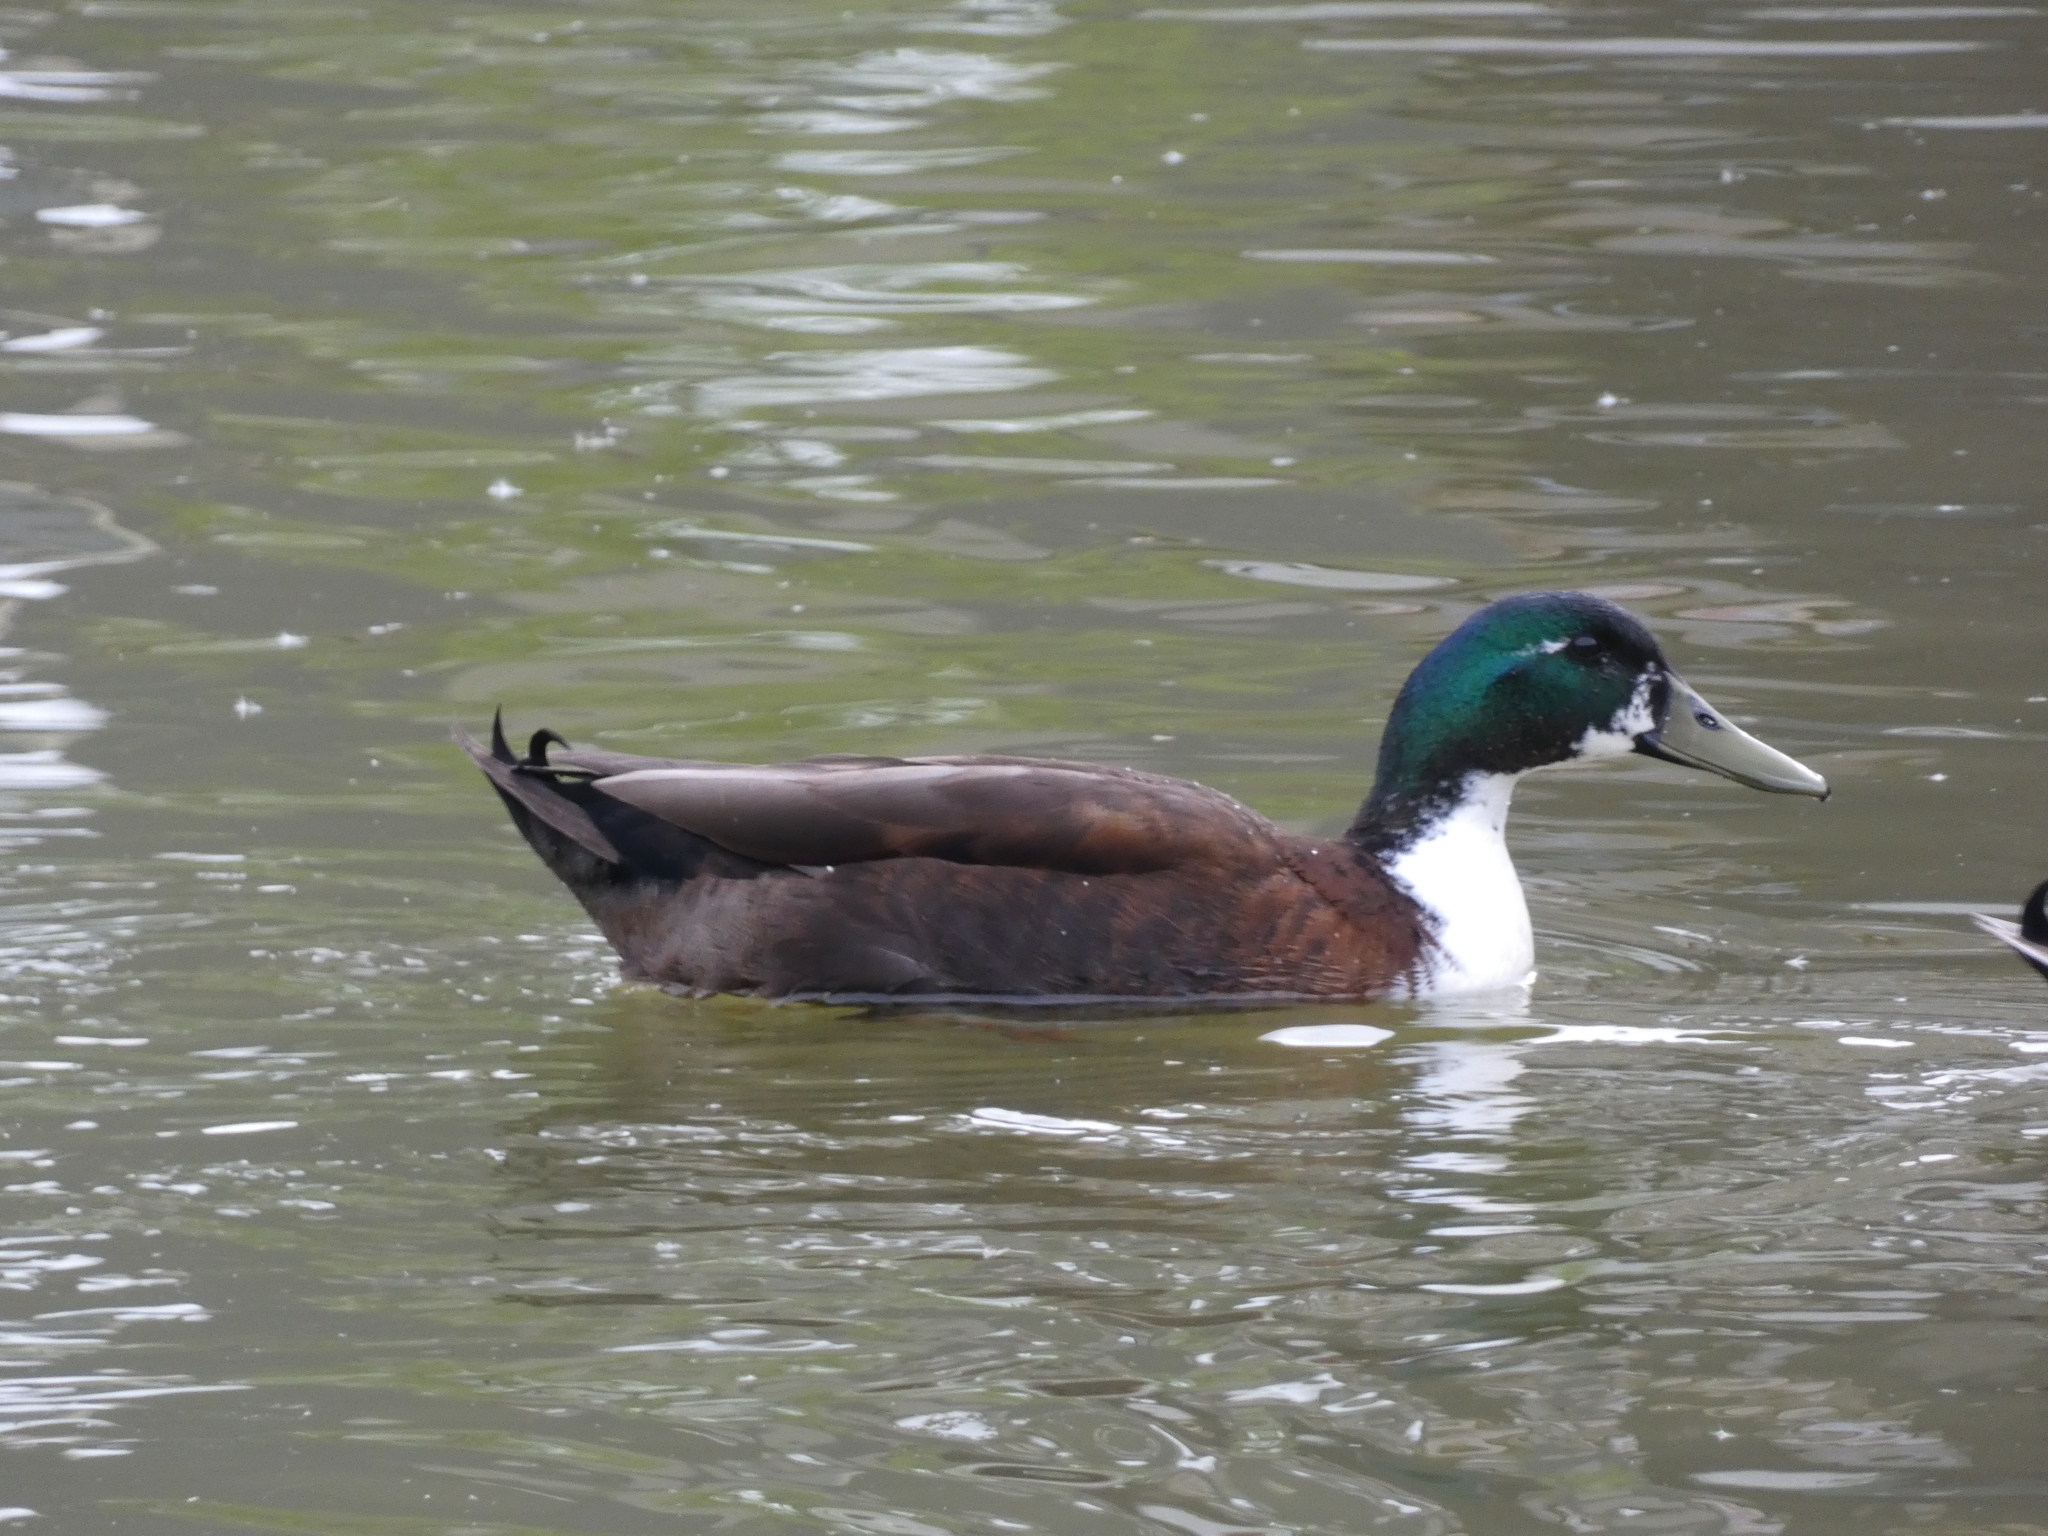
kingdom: Animalia
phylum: Chordata
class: Aves
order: Anseriformes
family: Anatidae
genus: Anas
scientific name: Anas platyrhynchos
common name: Mallard
